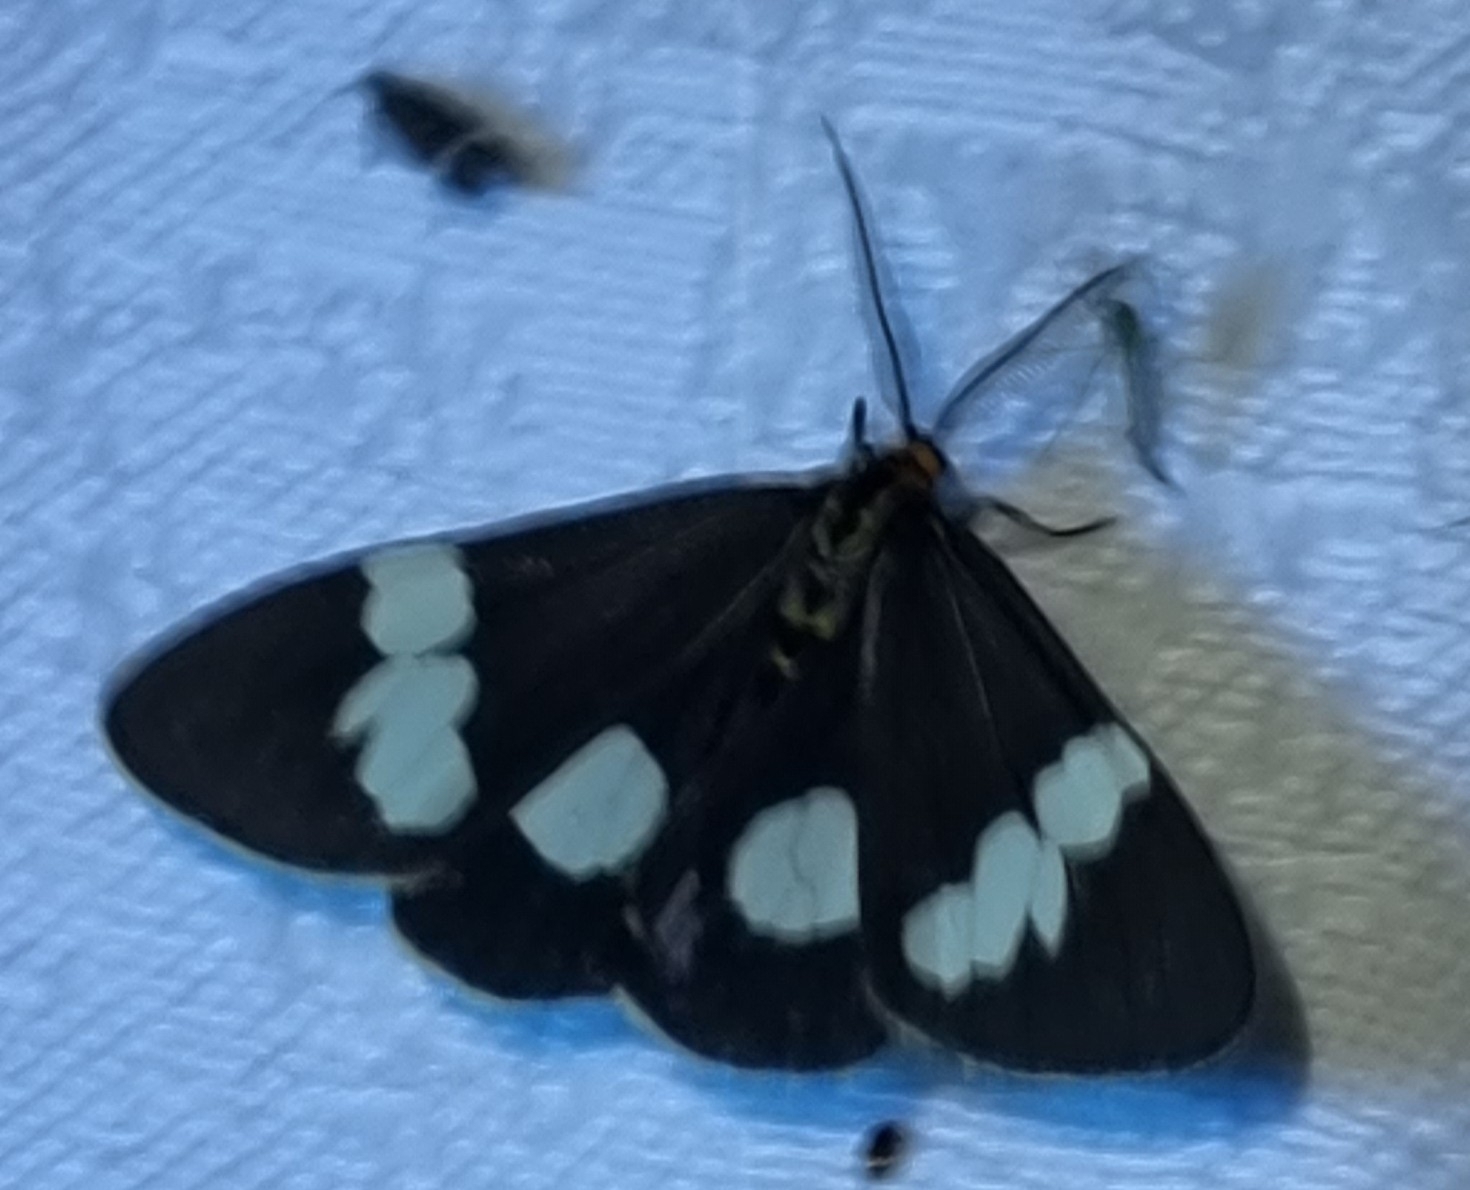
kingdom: Animalia
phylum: Arthropoda
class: Insecta
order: Lepidoptera
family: Erebidae
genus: Nyctemera
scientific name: Nyctemera amicus
